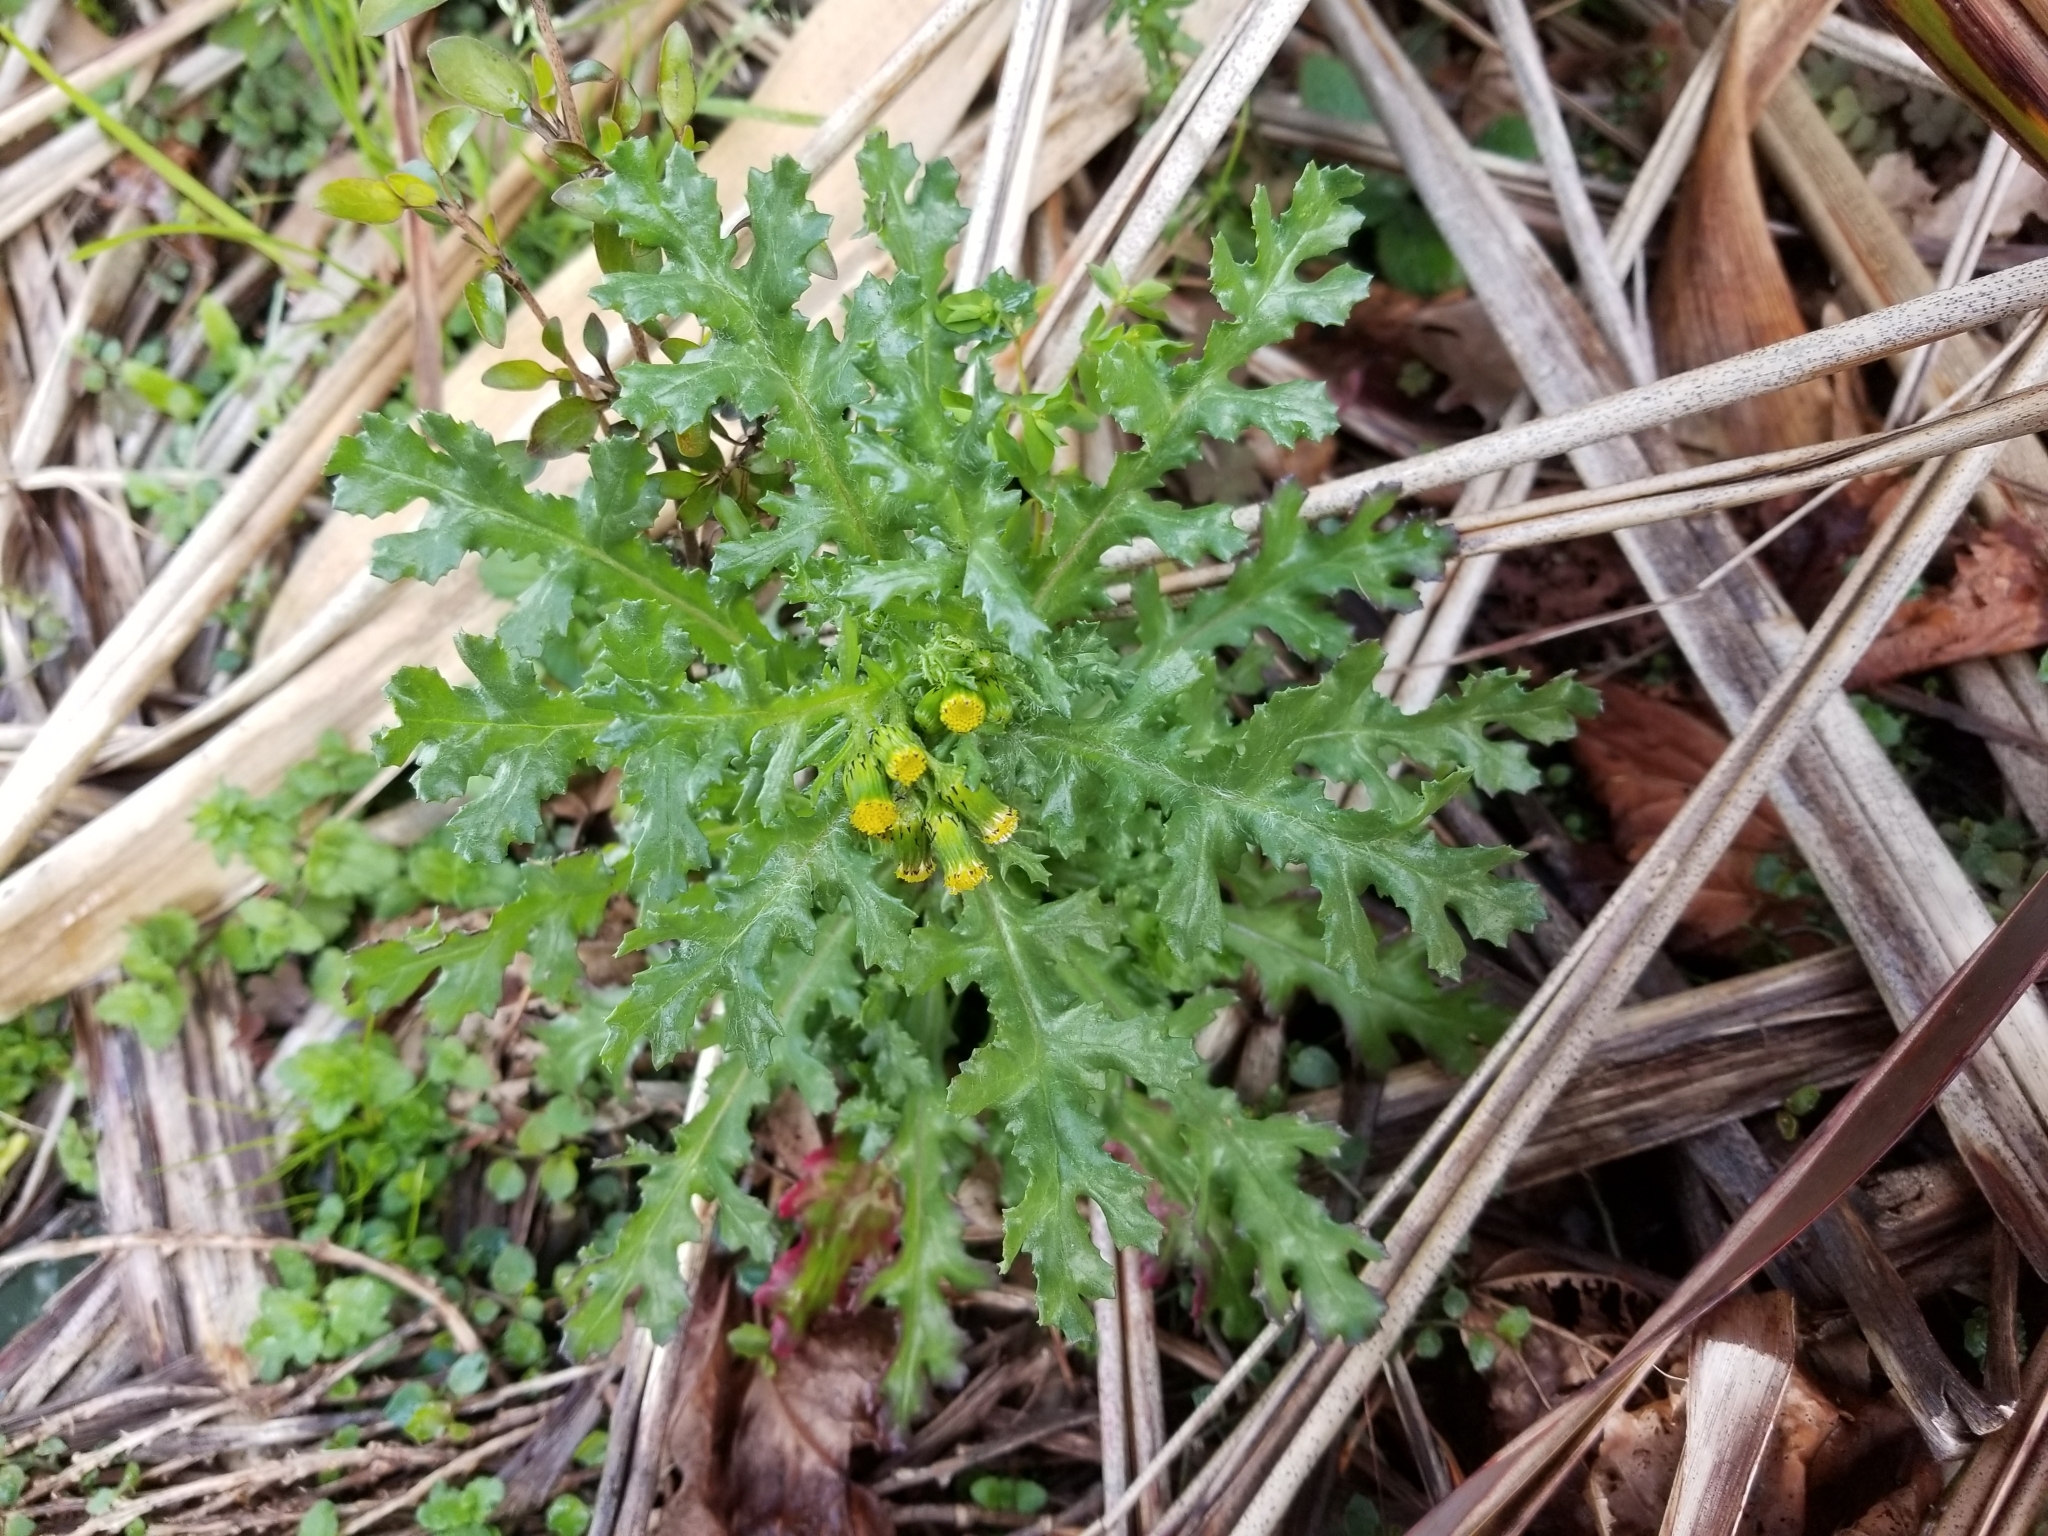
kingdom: Plantae
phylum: Tracheophyta
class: Magnoliopsida
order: Asterales
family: Asteraceae
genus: Senecio
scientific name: Senecio vulgaris
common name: Old-man-in-the-spring
